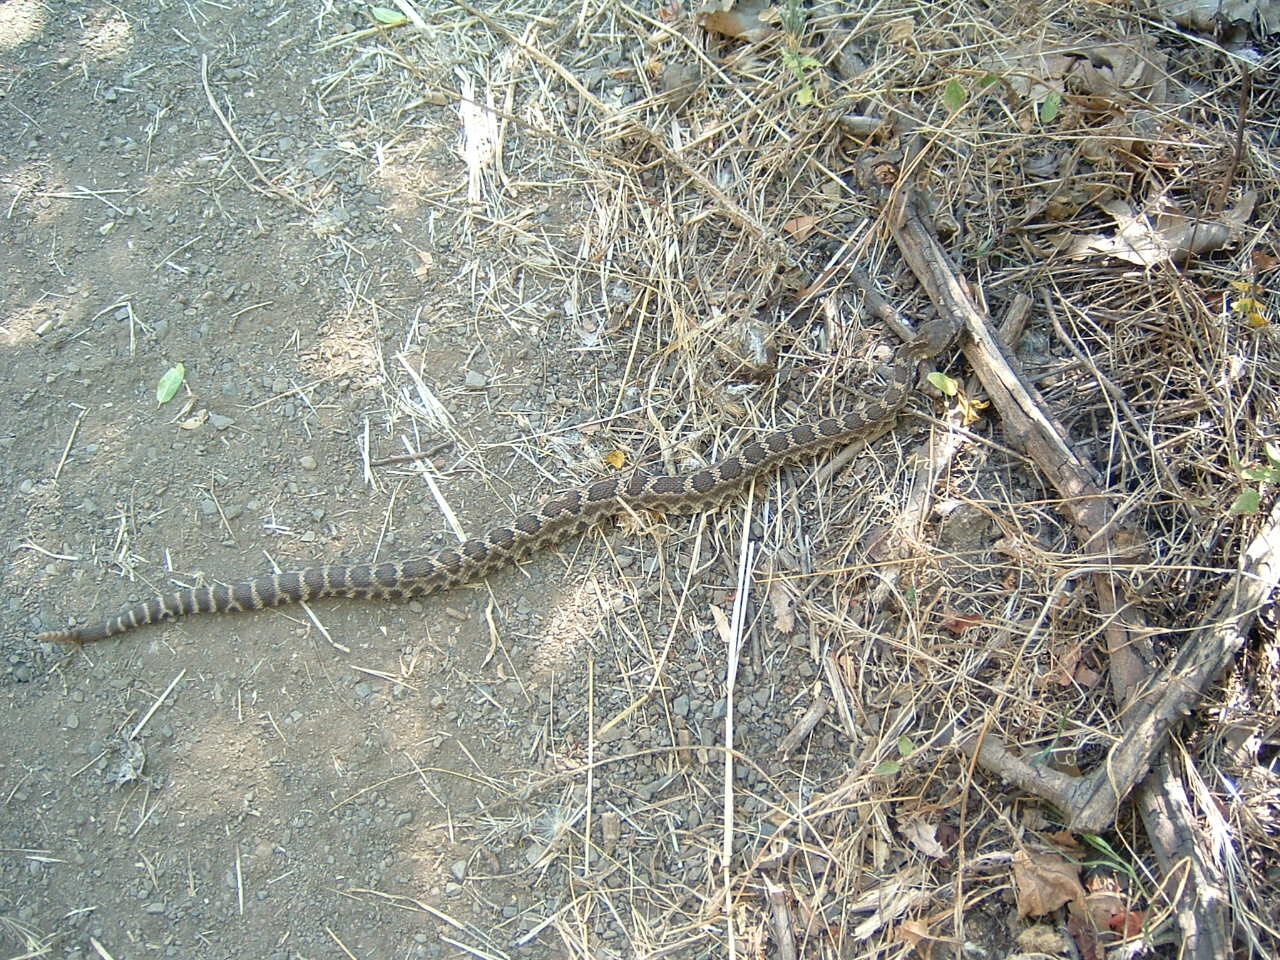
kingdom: Animalia
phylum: Chordata
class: Squamata
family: Viperidae
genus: Crotalus
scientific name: Crotalus oreganus
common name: Abyssus
